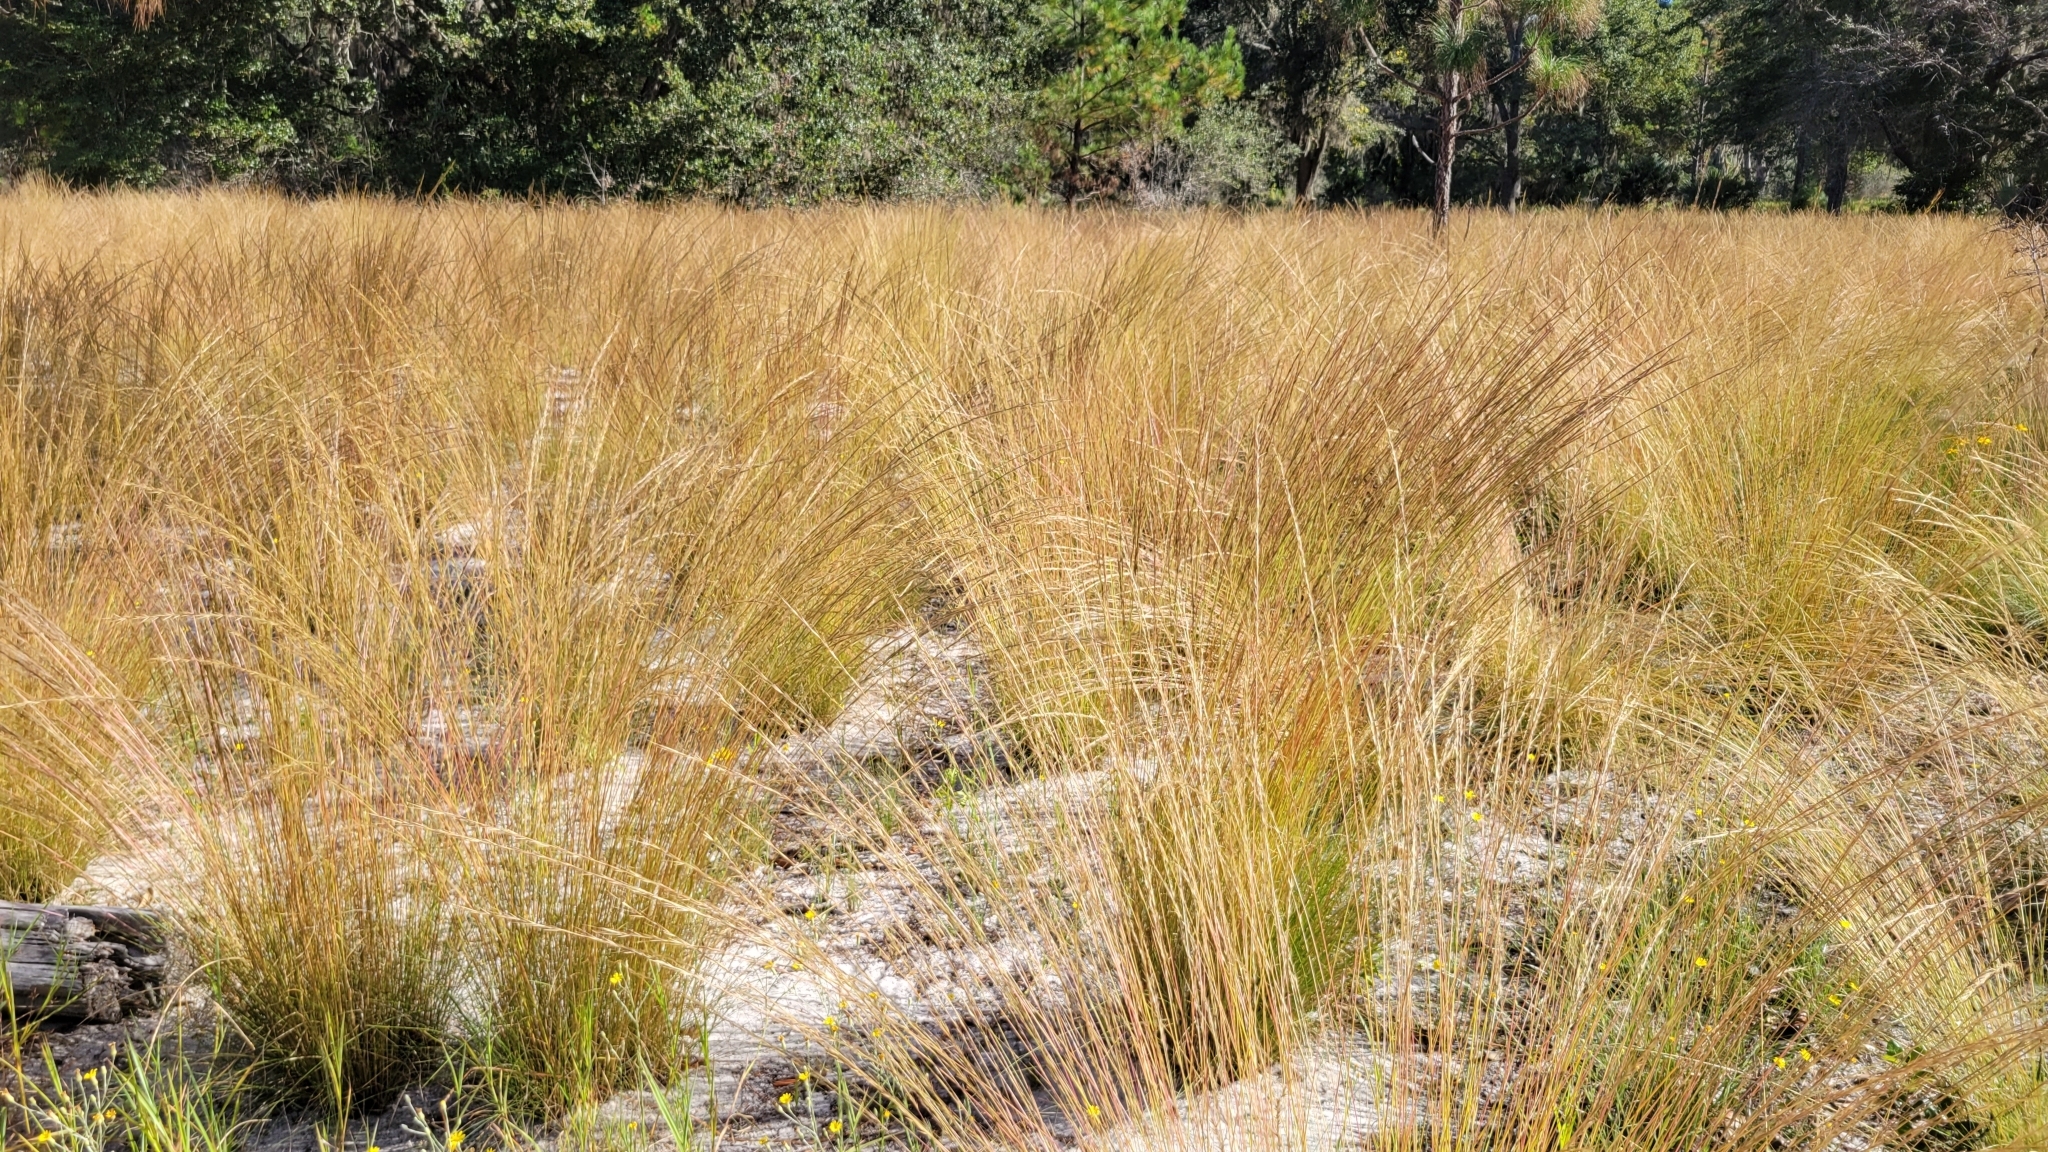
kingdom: Plantae
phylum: Tracheophyta
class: Liliopsida
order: Poales
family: Poaceae
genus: Aristida
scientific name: Aristida beyrichiana
